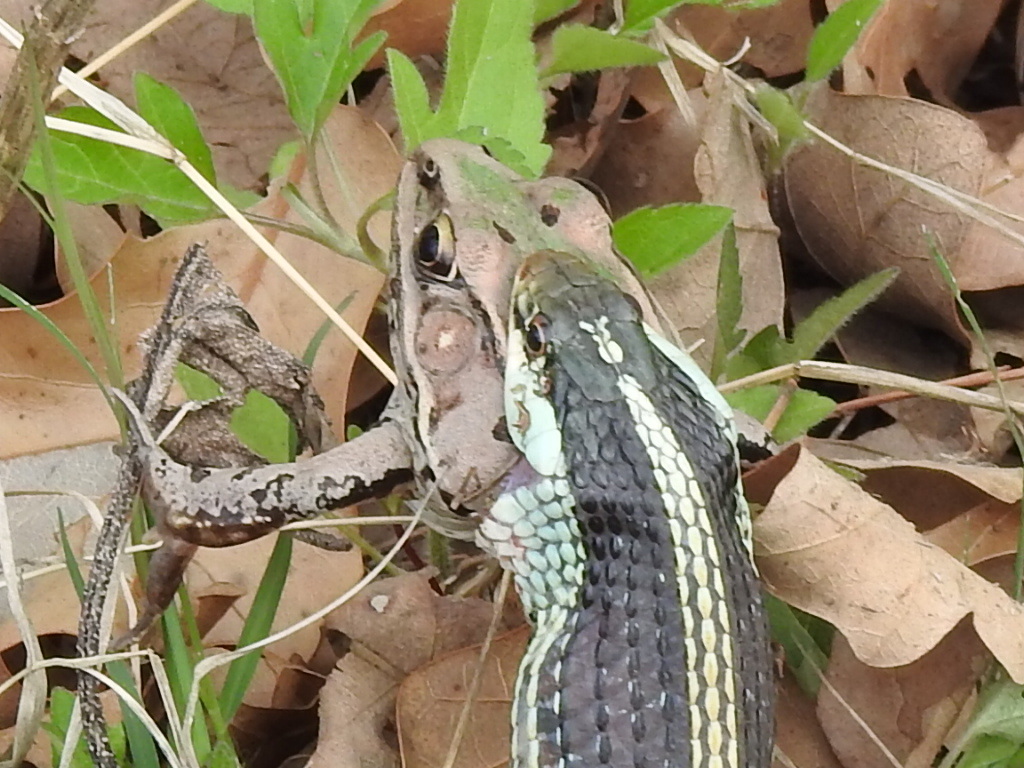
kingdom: Animalia
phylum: Chordata
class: Amphibia
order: Anura
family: Ranidae
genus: Lithobates
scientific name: Lithobates sphenocephalus
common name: Southern leopard frog
